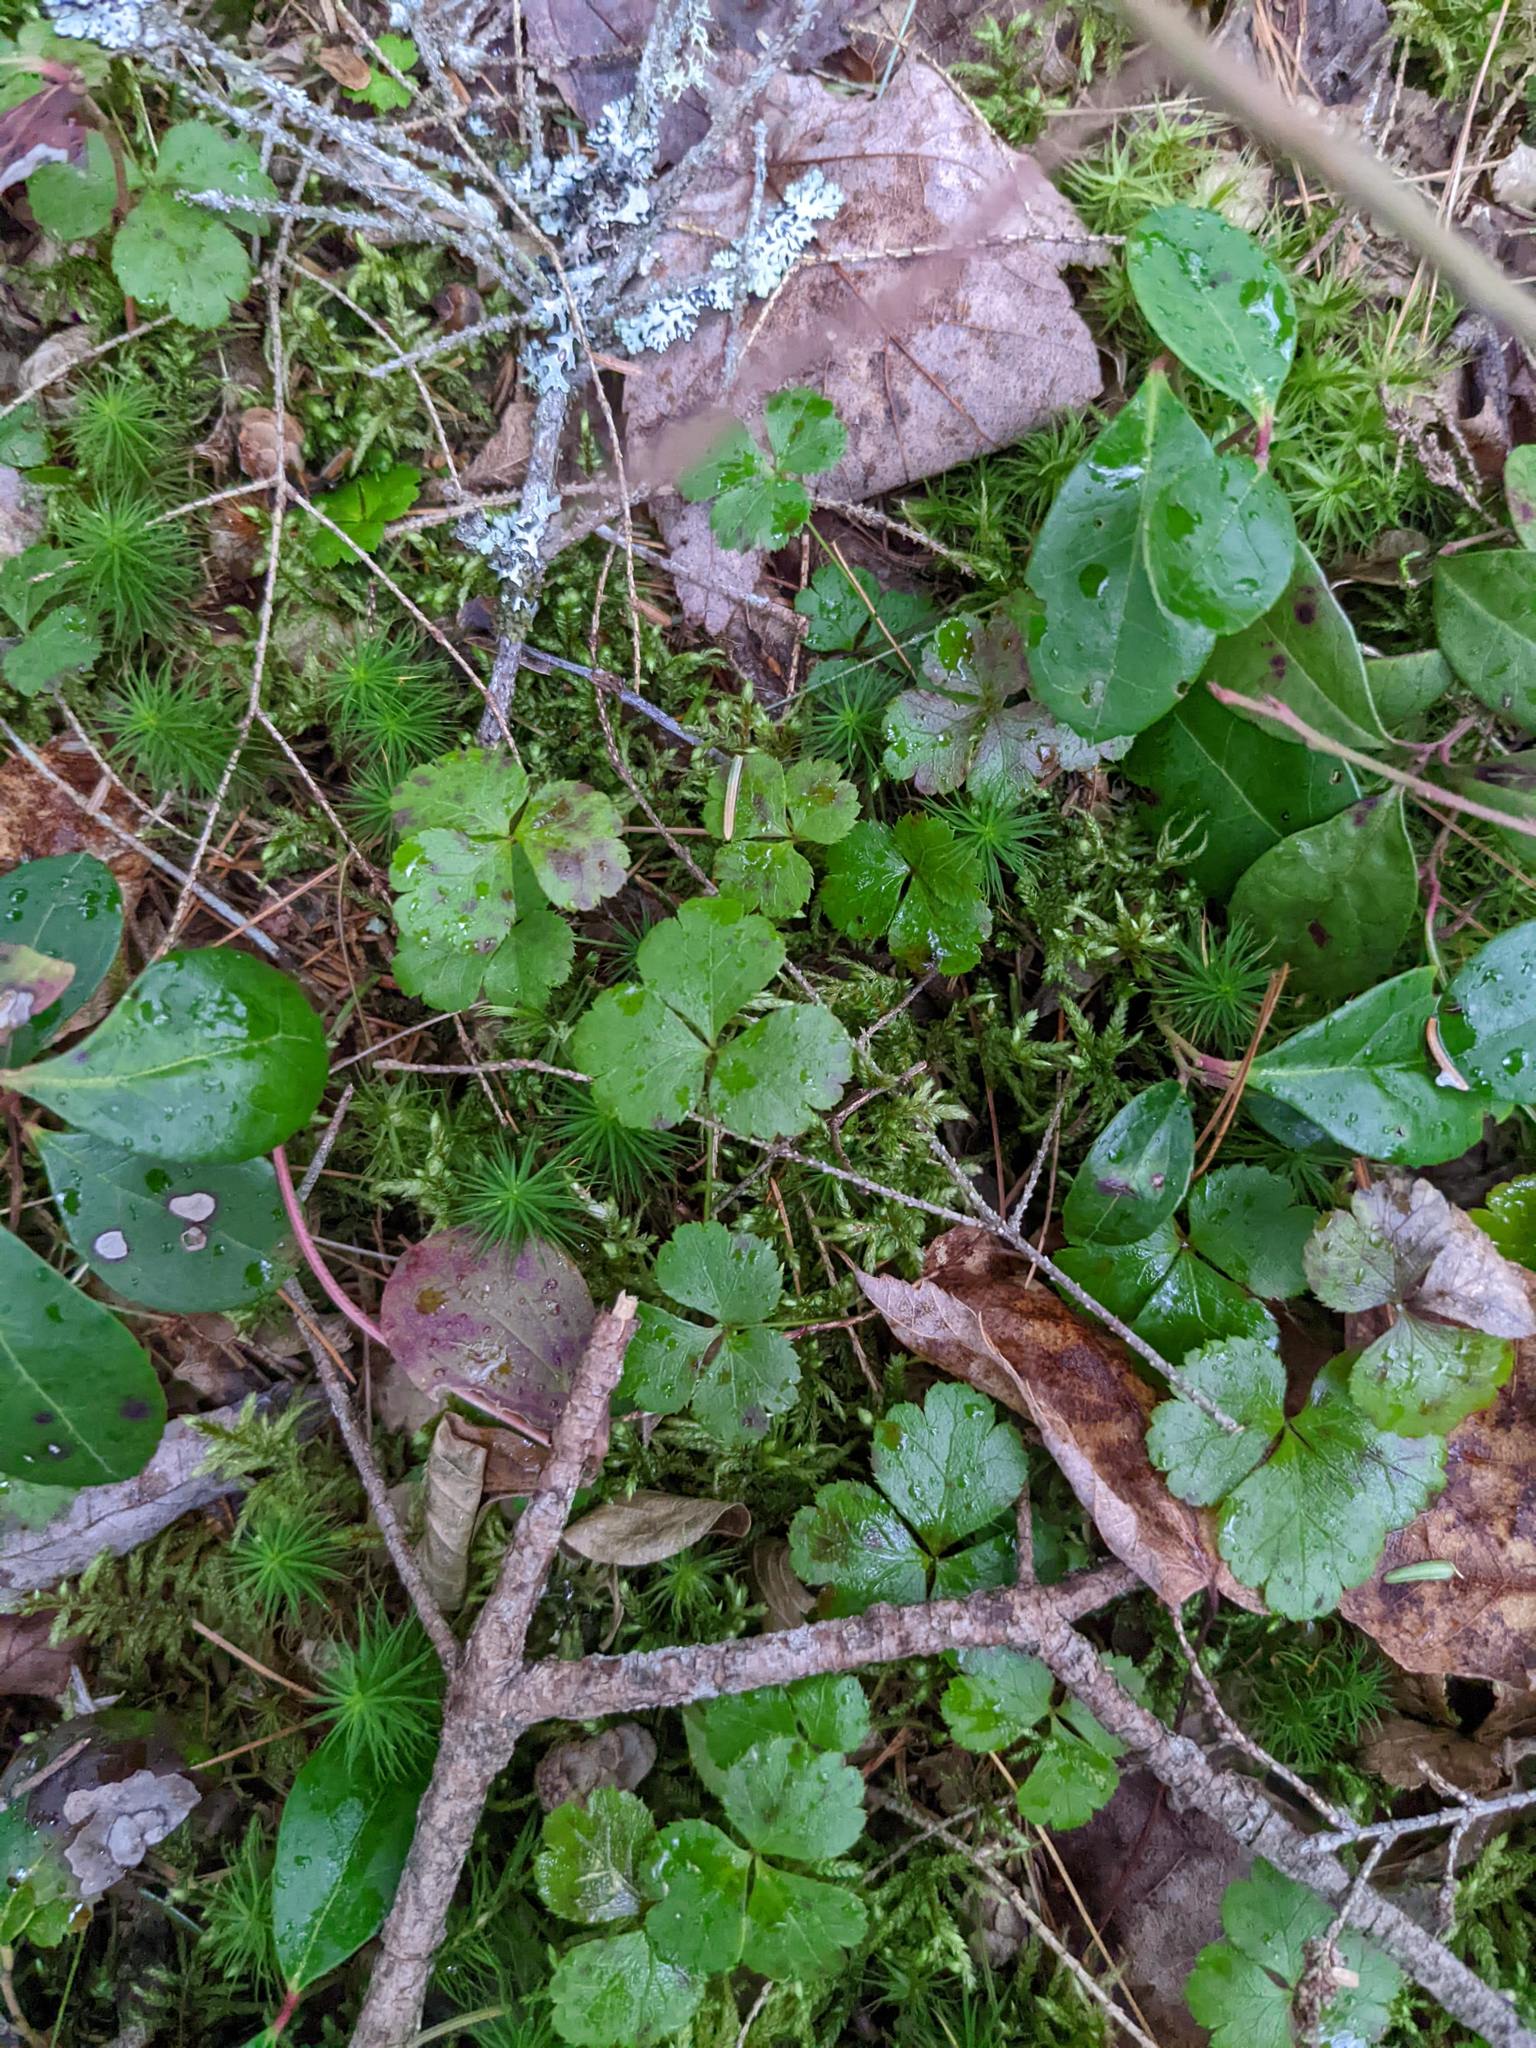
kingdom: Plantae
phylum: Tracheophyta
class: Magnoliopsida
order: Ranunculales
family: Ranunculaceae
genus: Coptis
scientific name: Coptis trifolia
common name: Canker-root
